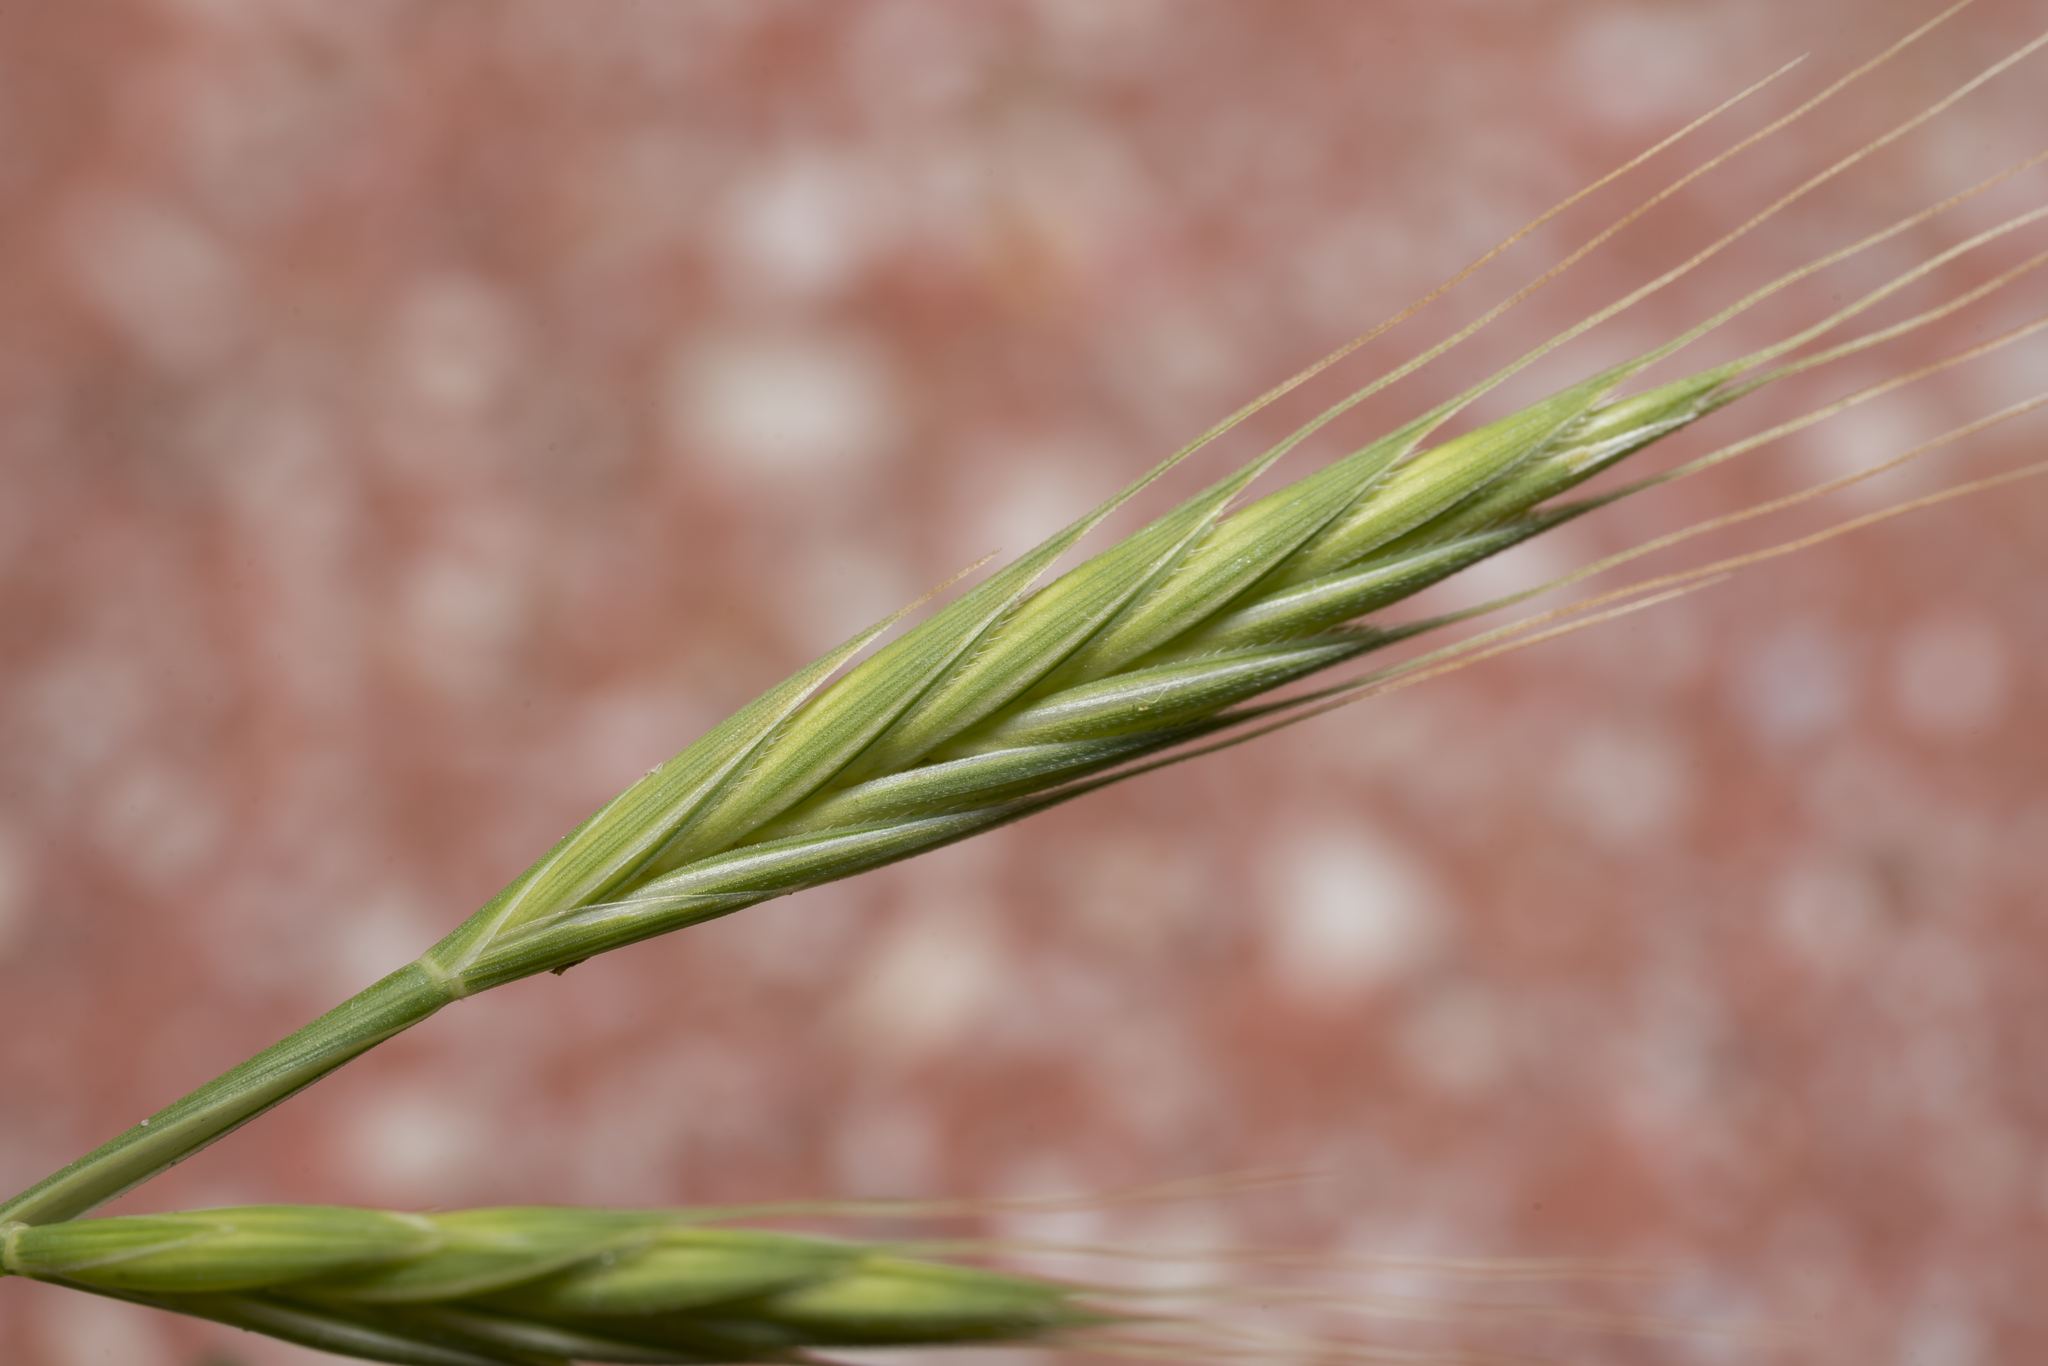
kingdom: Plantae
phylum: Tracheophyta
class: Liliopsida
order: Poales
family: Poaceae
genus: Brachypodium
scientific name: Brachypodium distachyon
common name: Stiff brome
